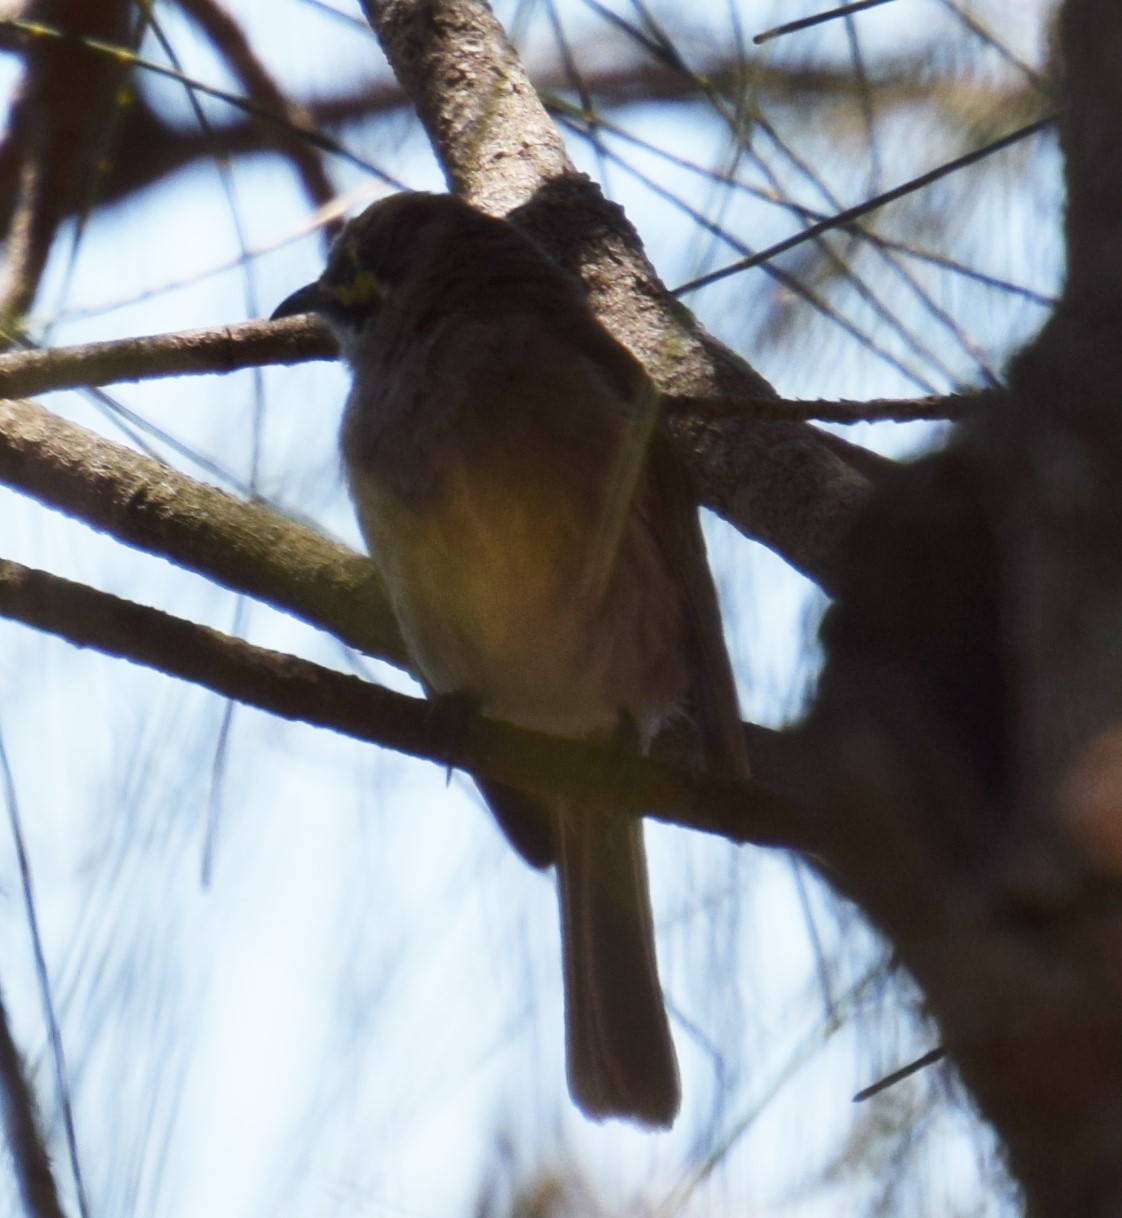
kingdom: Animalia
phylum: Chordata
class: Aves
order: Passeriformes
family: Meliphagidae
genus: Caligavis
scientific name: Caligavis chrysops
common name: Yellow-faced honeyeater
